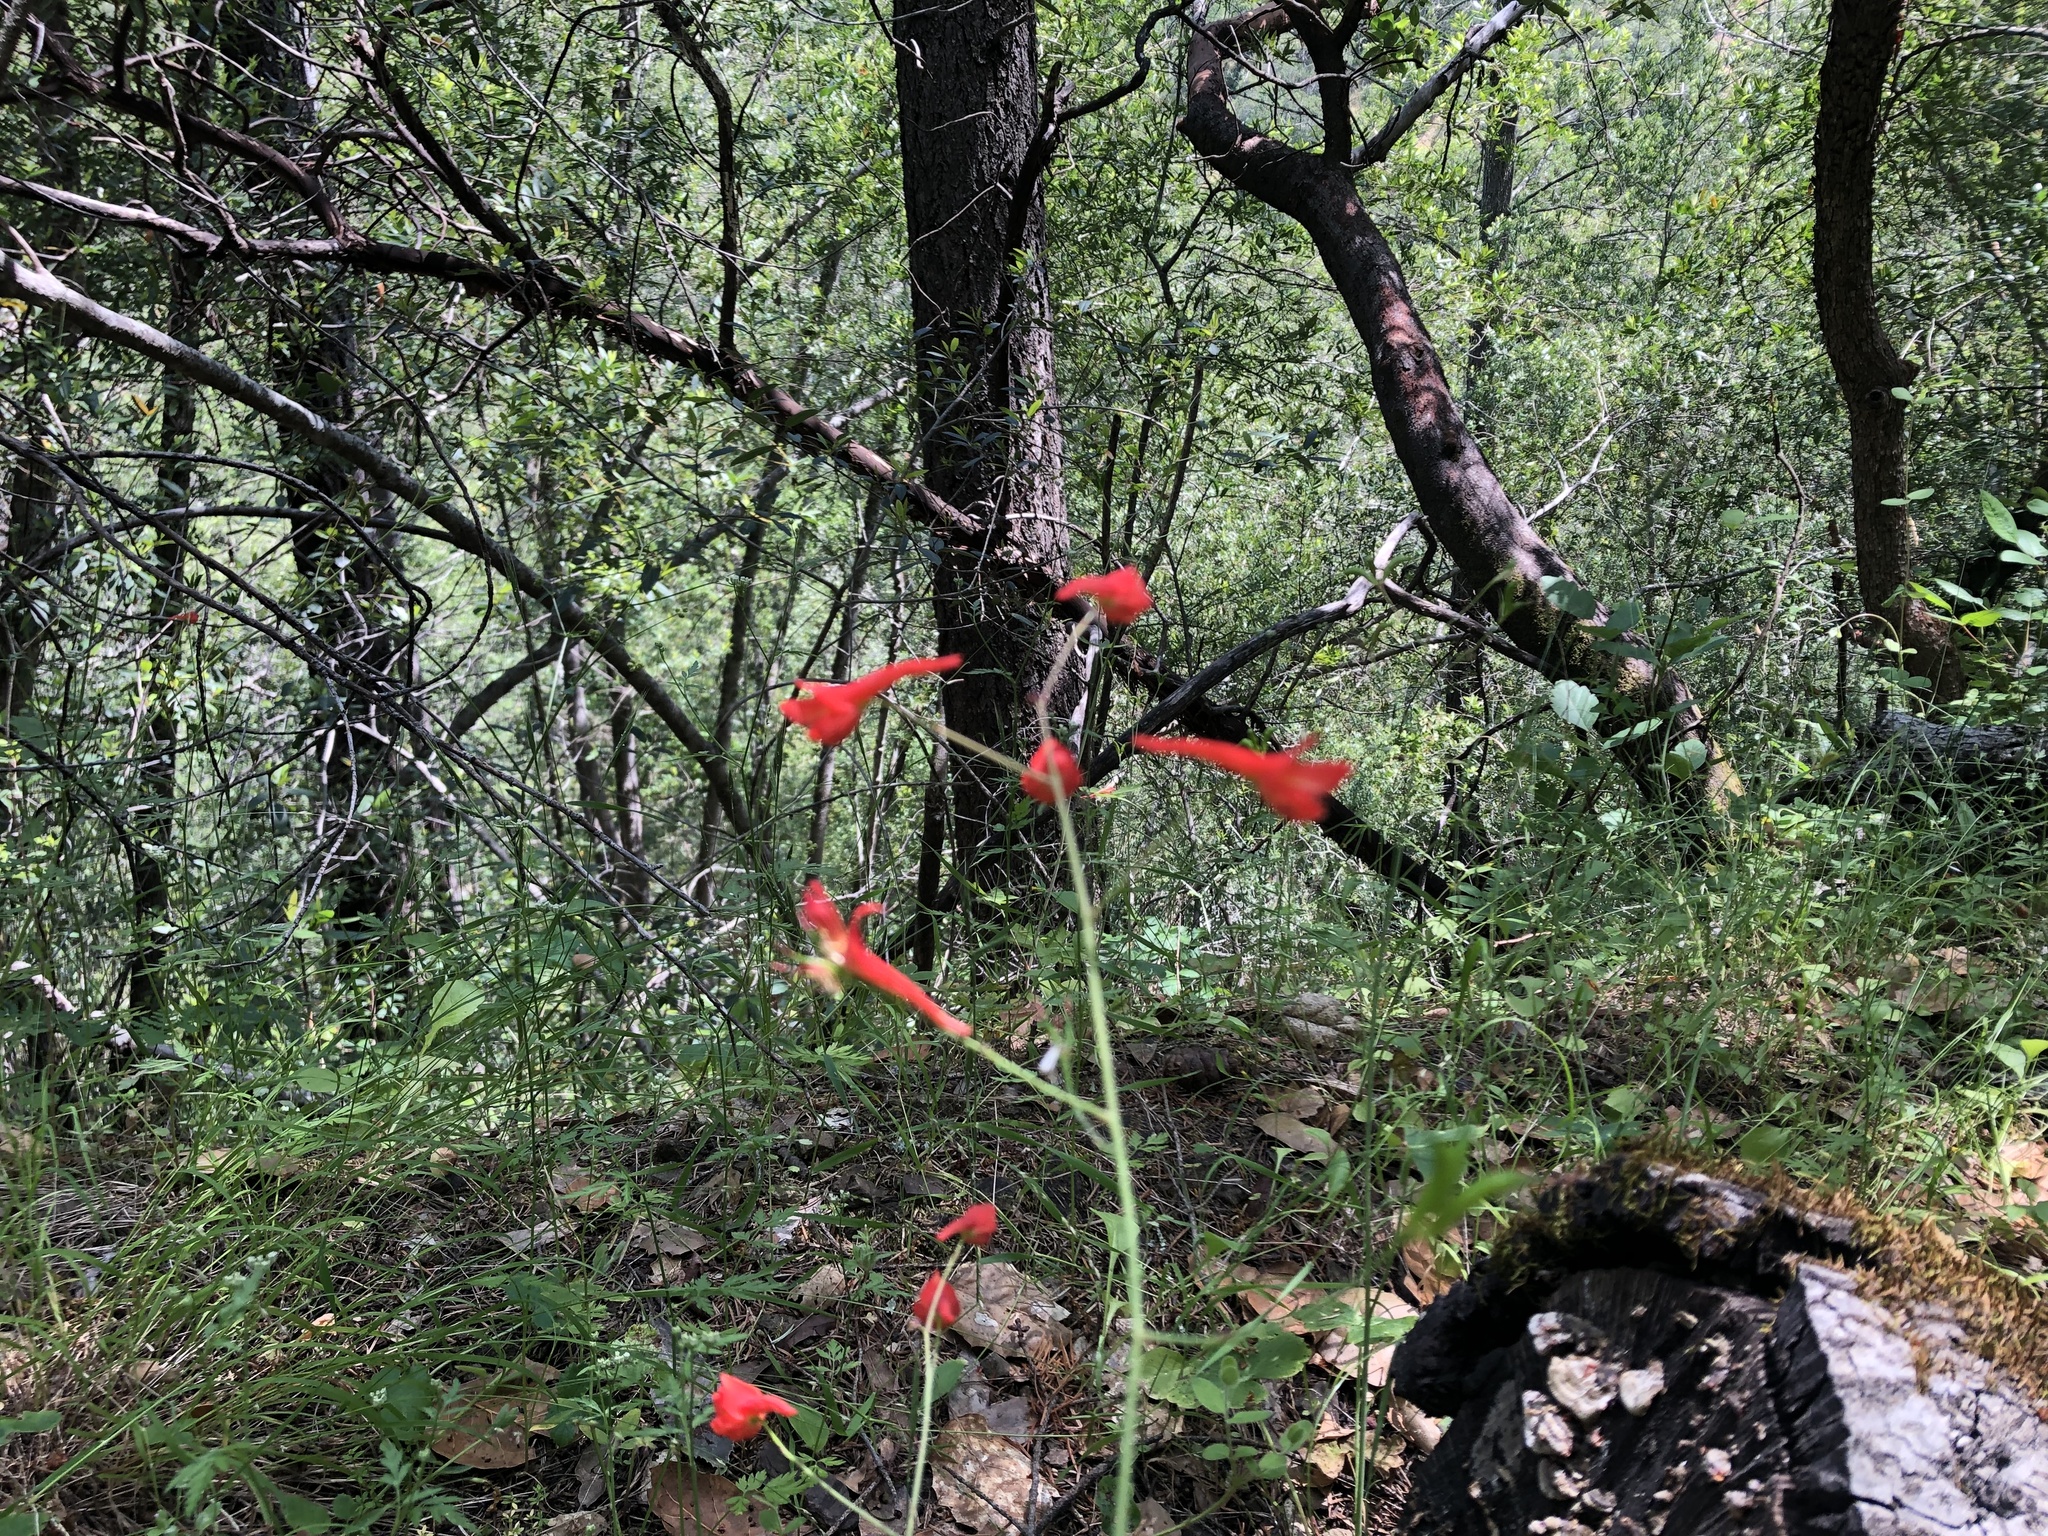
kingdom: Plantae
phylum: Tracheophyta
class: Magnoliopsida
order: Ranunculales
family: Ranunculaceae
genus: Delphinium
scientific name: Delphinium nudicaule
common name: Red larkspur
